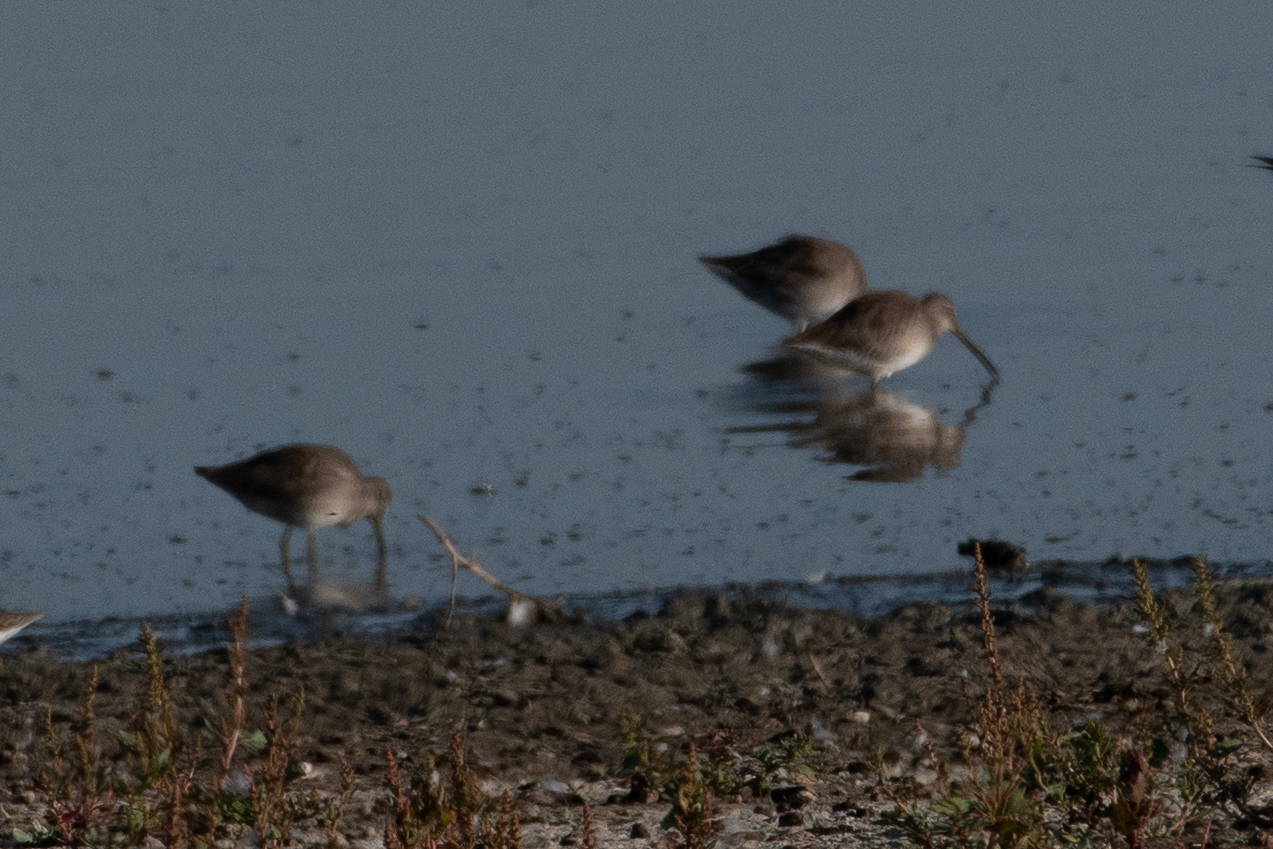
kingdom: Animalia
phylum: Chordata
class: Aves
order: Charadriiformes
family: Scolopacidae
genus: Limnodromus
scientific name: Limnodromus
